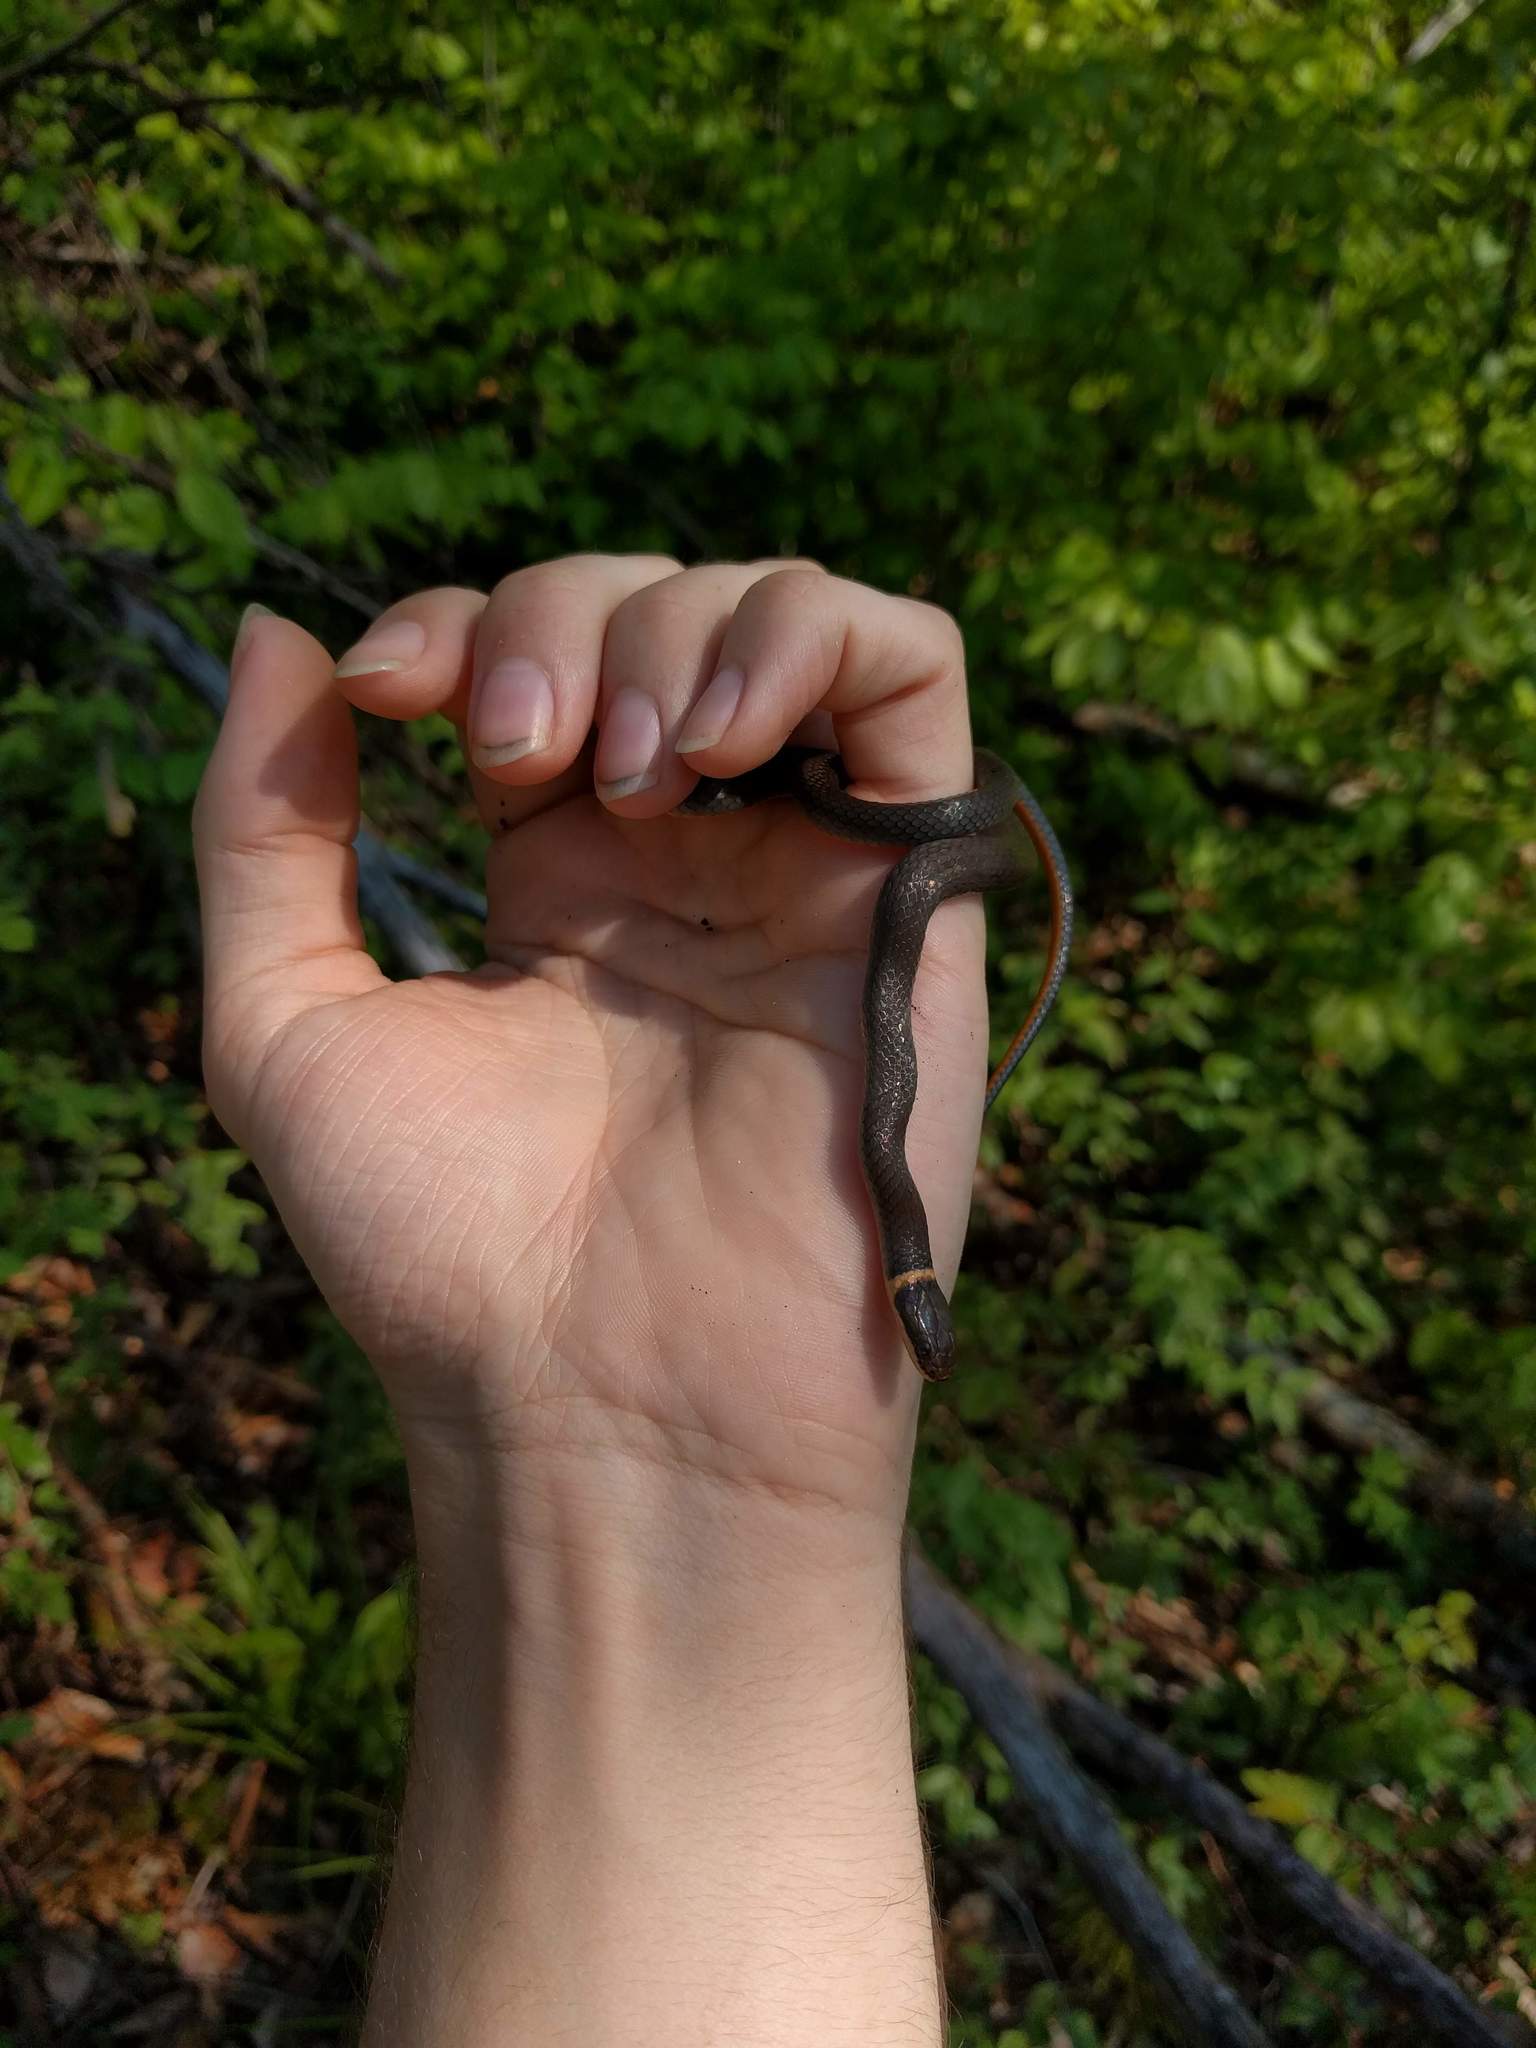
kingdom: Animalia
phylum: Chordata
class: Squamata
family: Colubridae
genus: Diadophis
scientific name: Diadophis punctatus
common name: Ringneck snake
